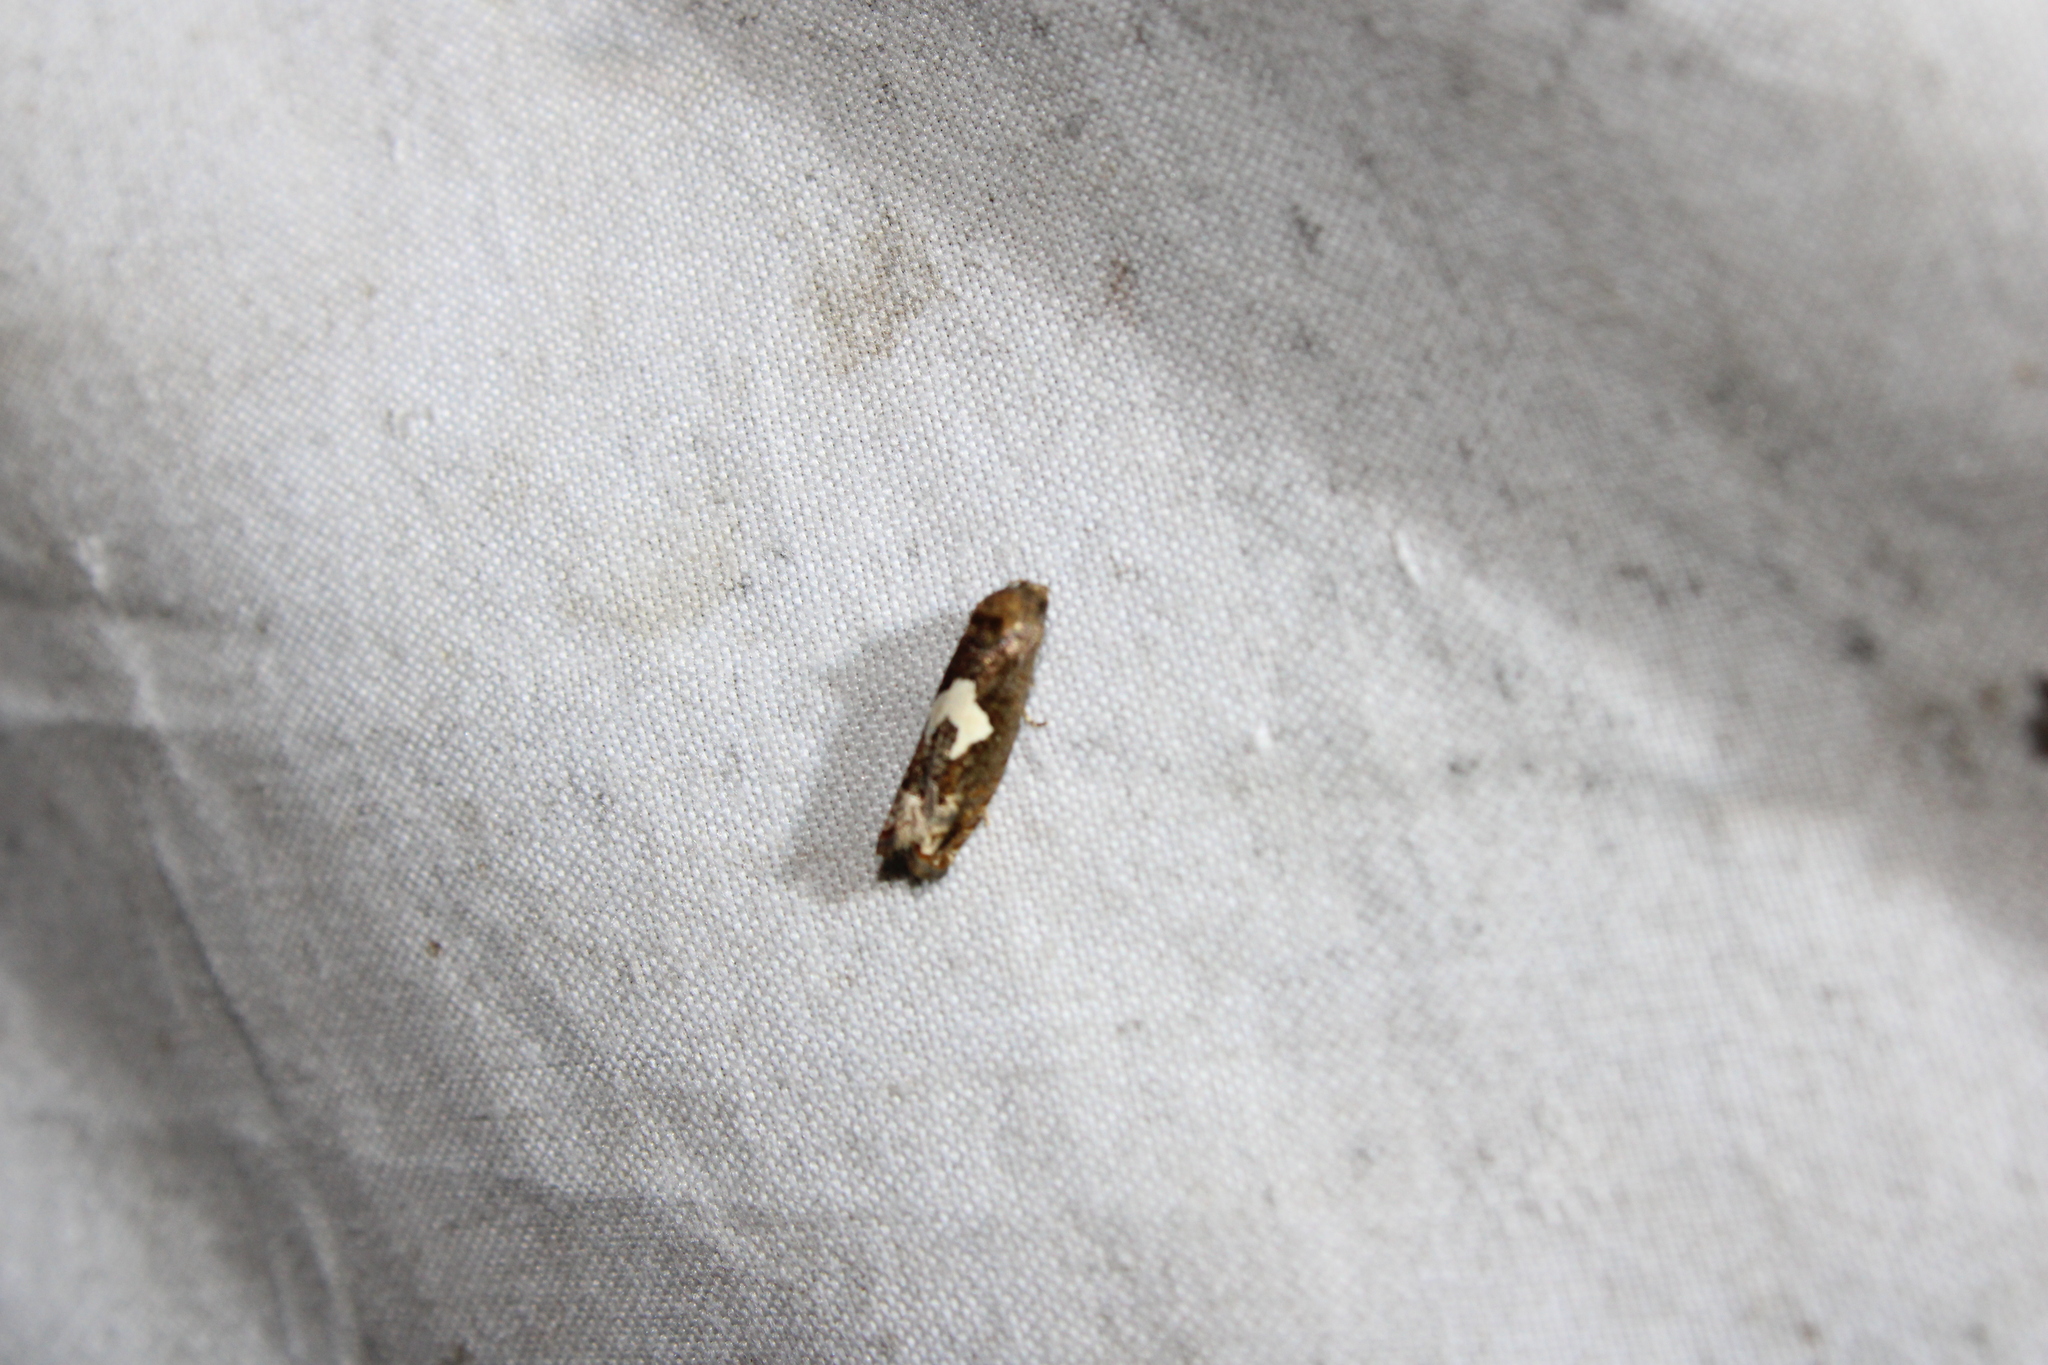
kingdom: Animalia
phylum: Arthropoda
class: Insecta
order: Lepidoptera
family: Tortricidae
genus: Epiblema
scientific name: Epiblema otiosana
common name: Bidens borer moth
